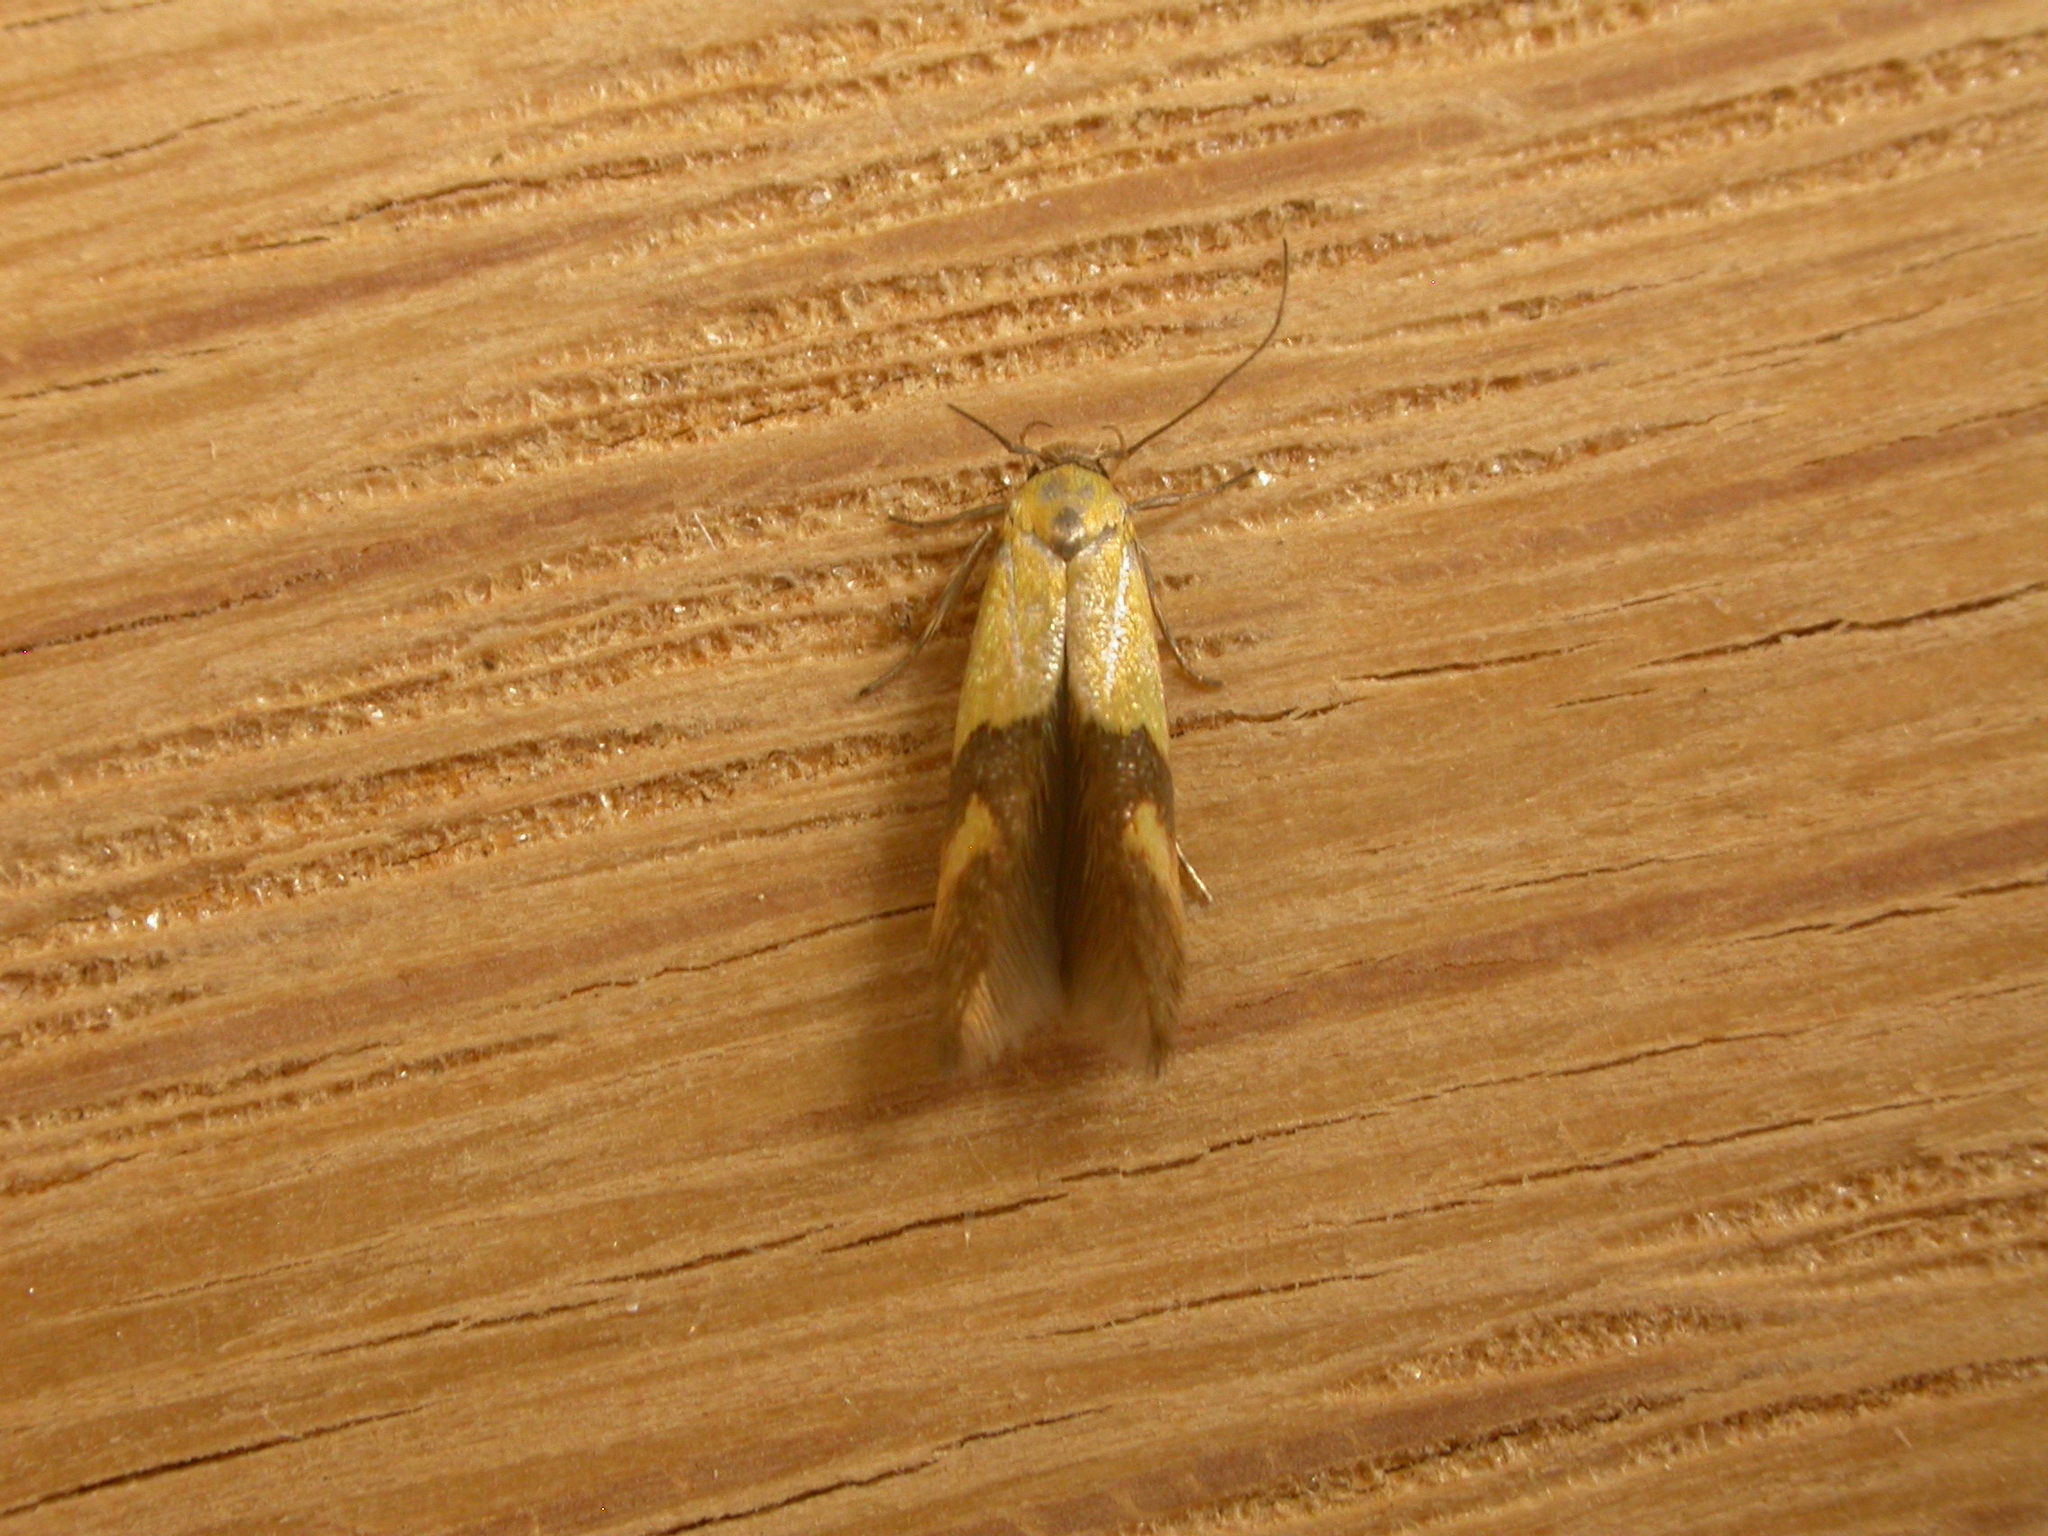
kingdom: Animalia
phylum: Arthropoda
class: Insecta
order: Lepidoptera
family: Stathmopodidae
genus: Stathmopoda
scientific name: Stathmopoda auriferella
